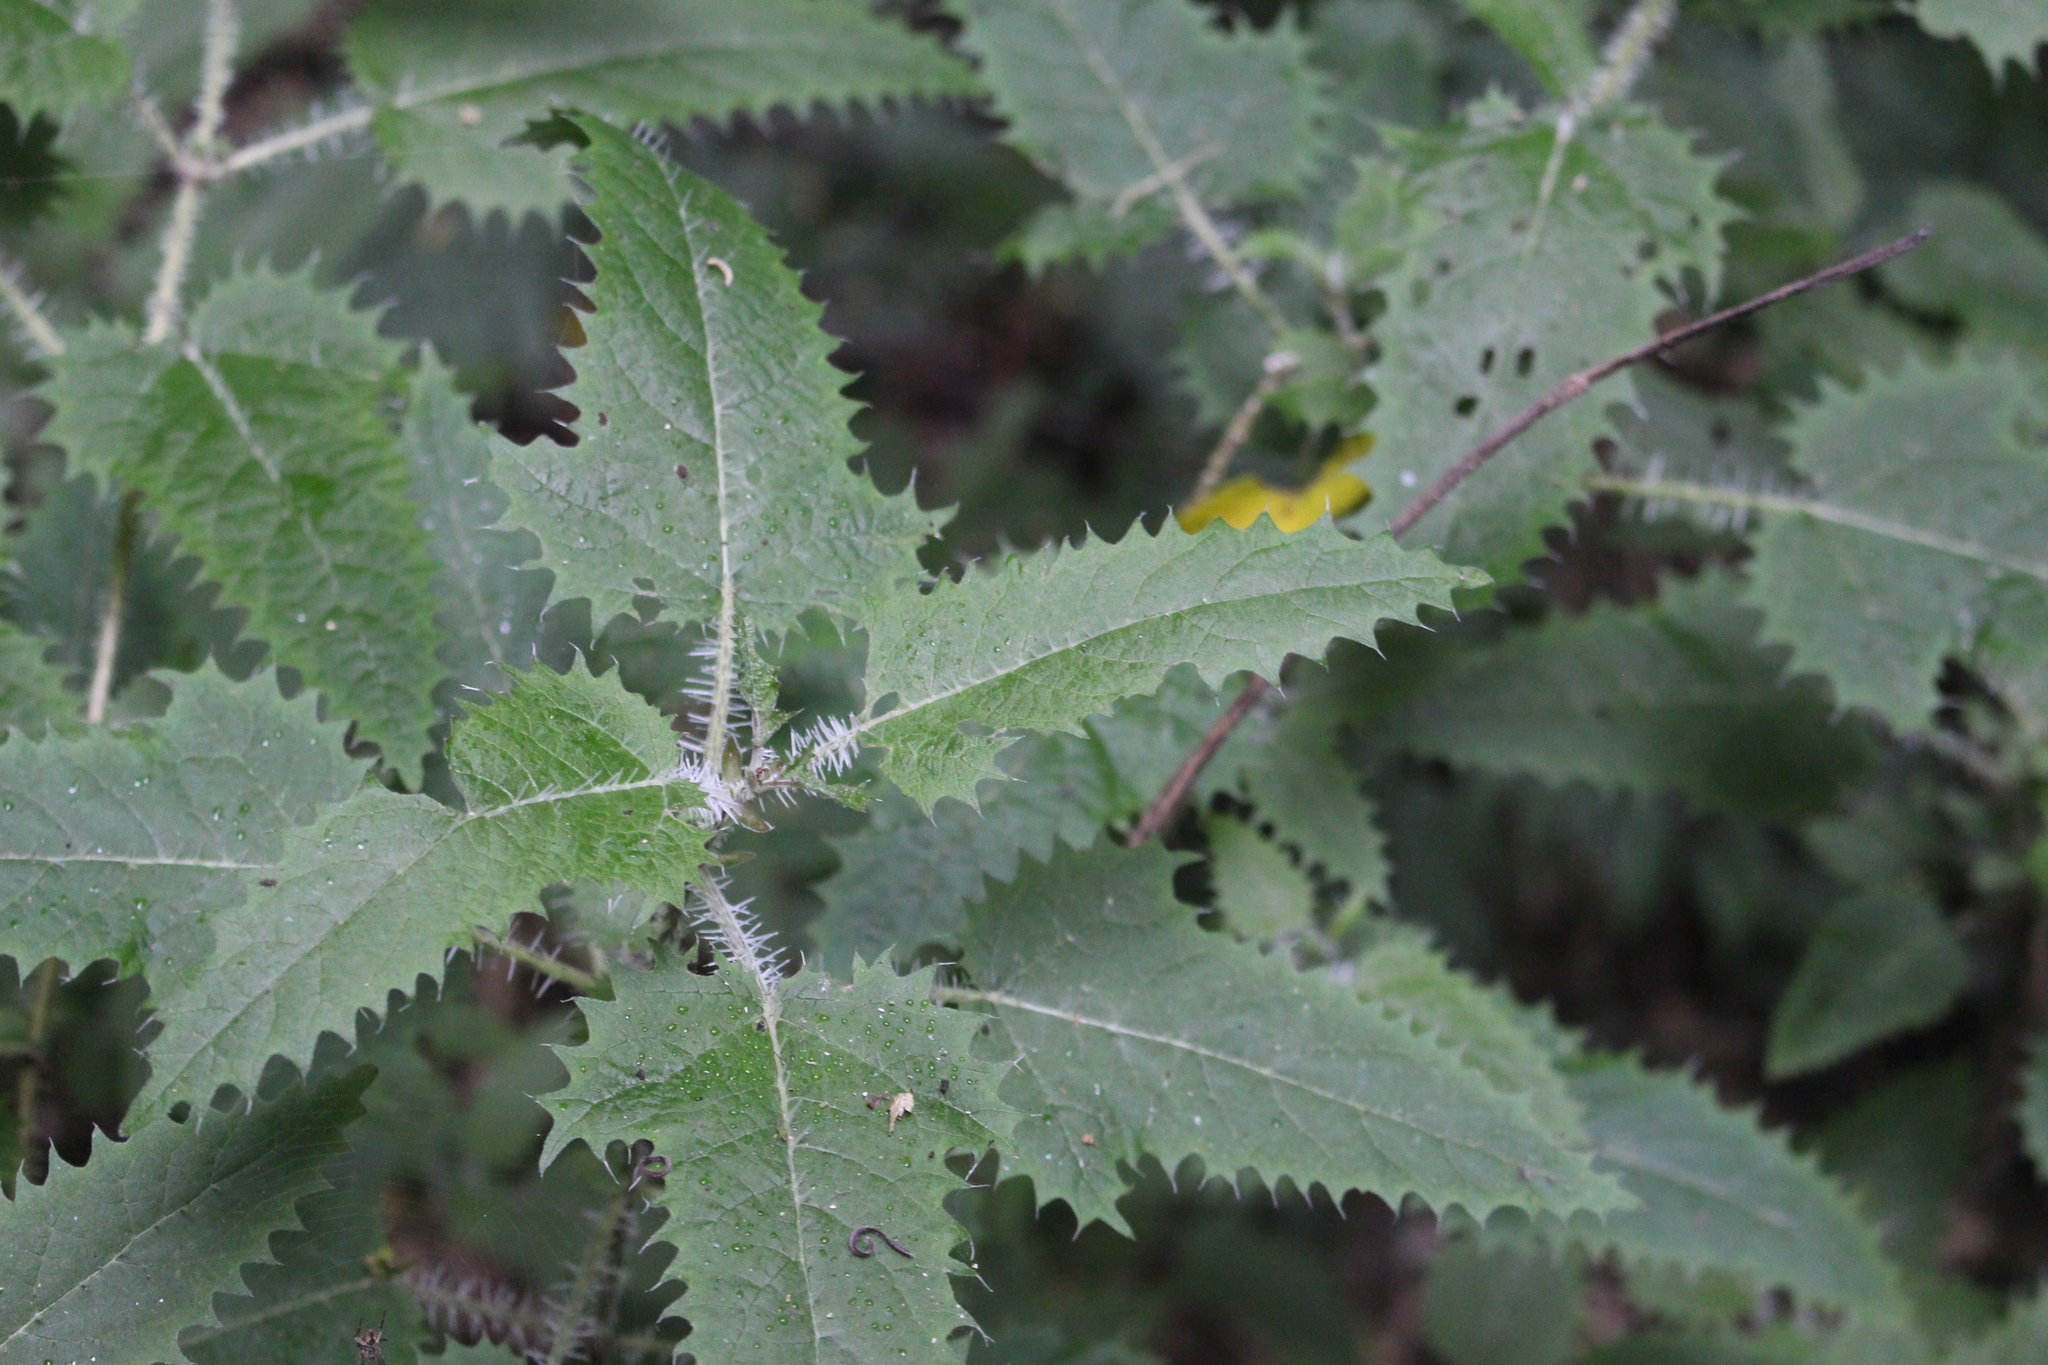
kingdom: Plantae
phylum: Tracheophyta
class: Magnoliopsida
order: Rosales
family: Urticaceae
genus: Urtica
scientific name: Urtica ferox
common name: Tree nettle
